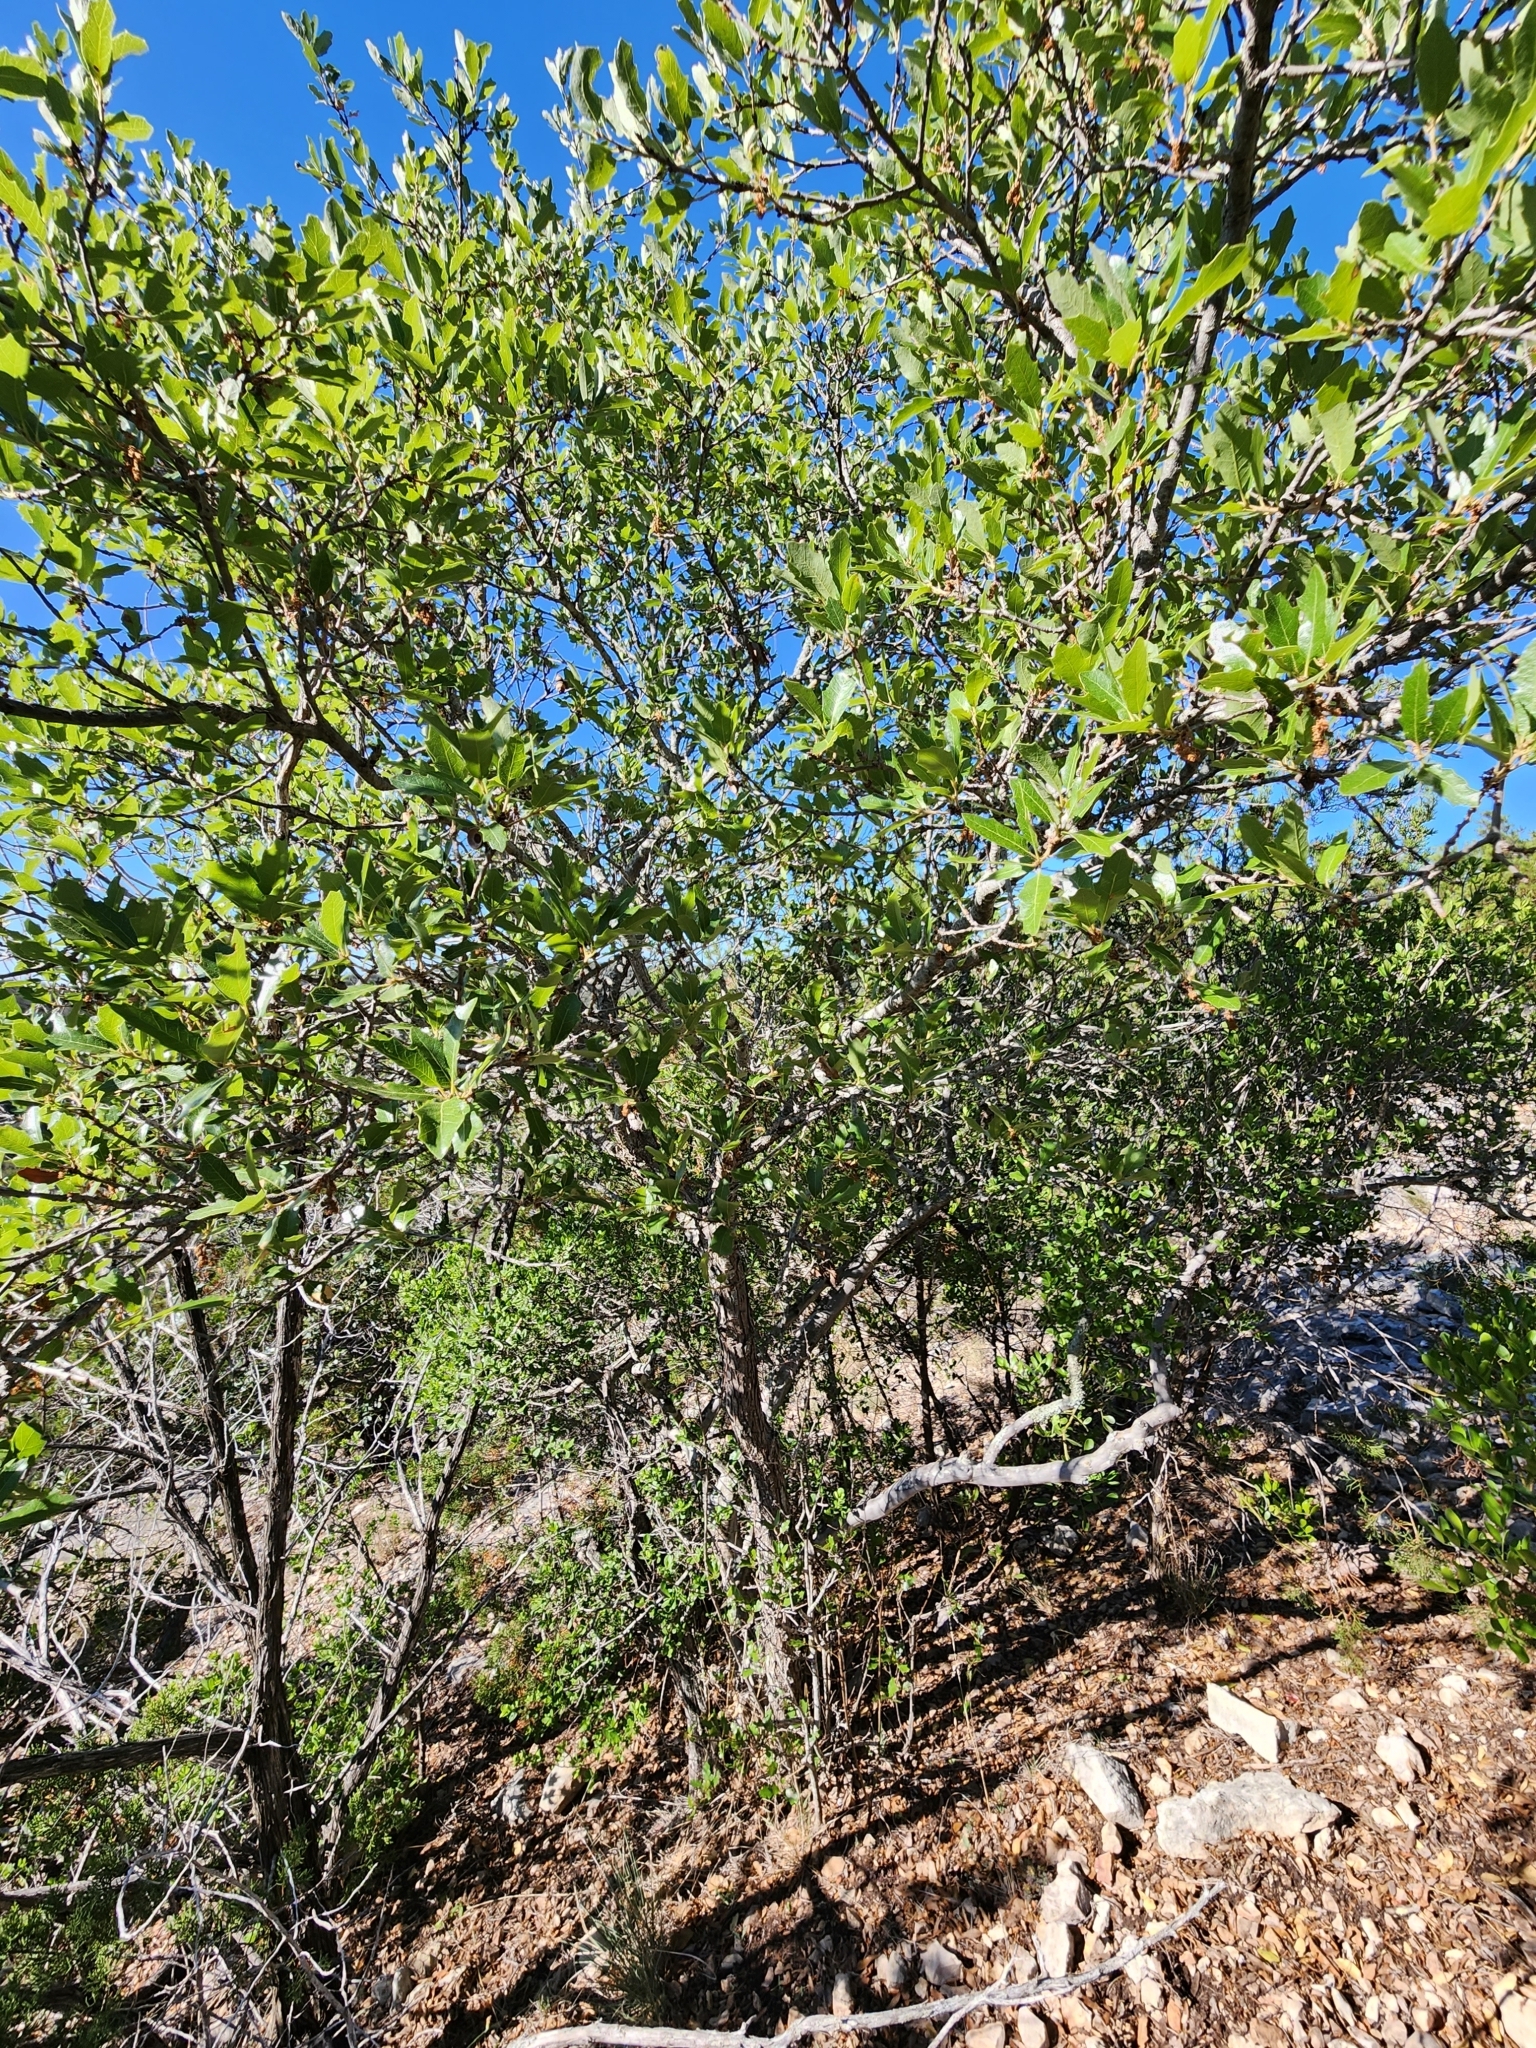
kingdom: Plantae
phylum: Tracheophyta
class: Magnoliopsida
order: Fagales
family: Fagaceae
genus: Quercus
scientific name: Quercus vaseyana
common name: Sandpaper oak
